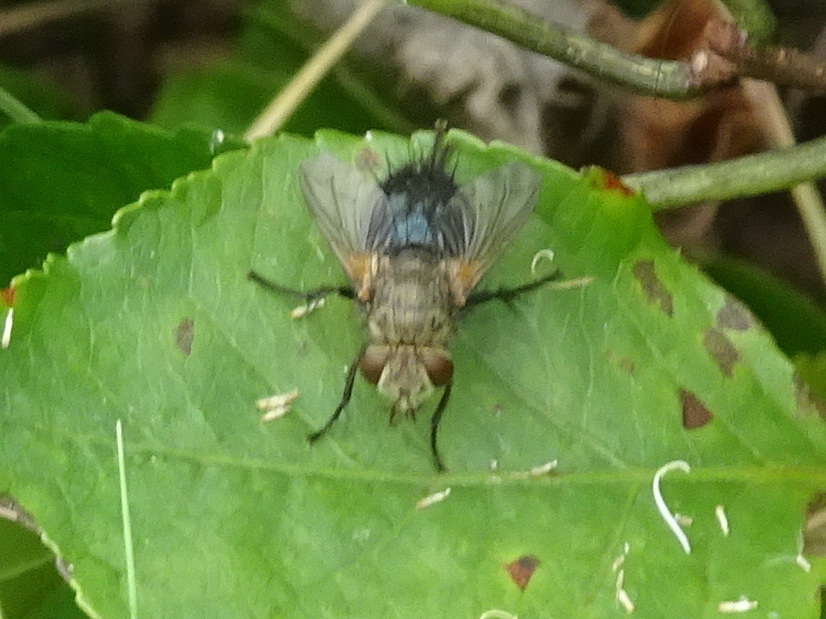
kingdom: Animalia
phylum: Arthropoda
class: Insecta
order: Diptera
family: Tachinidae
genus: Archytas
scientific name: Archytas apicifer
